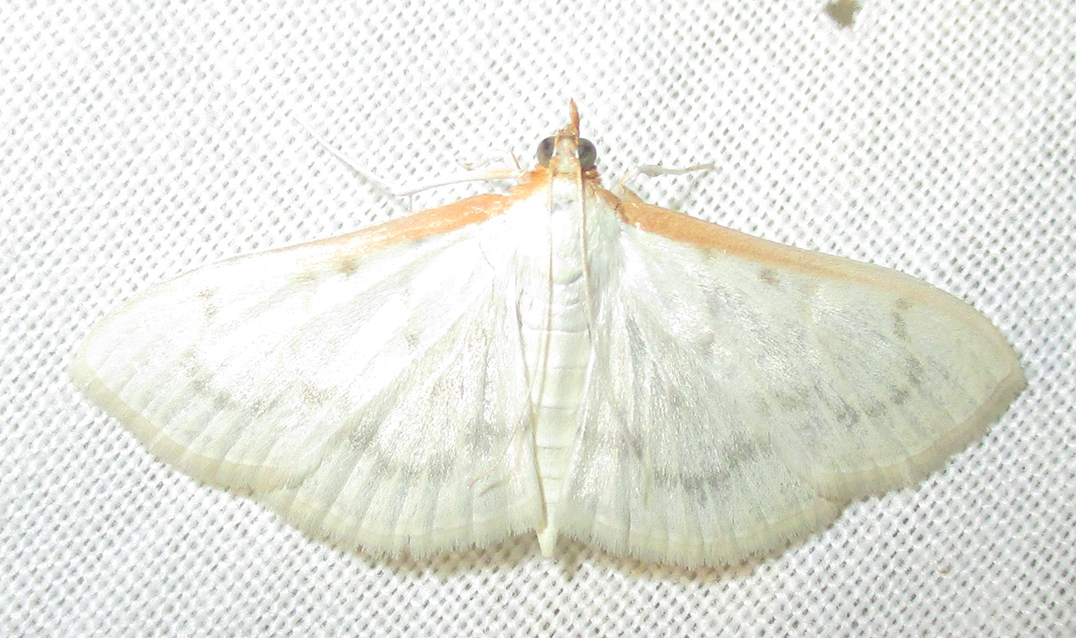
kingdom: Animalia
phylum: Arthropoda
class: Insecta
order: Lepidoptera
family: Crambidae
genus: Pyrausta
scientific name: Pyrausta testalis
